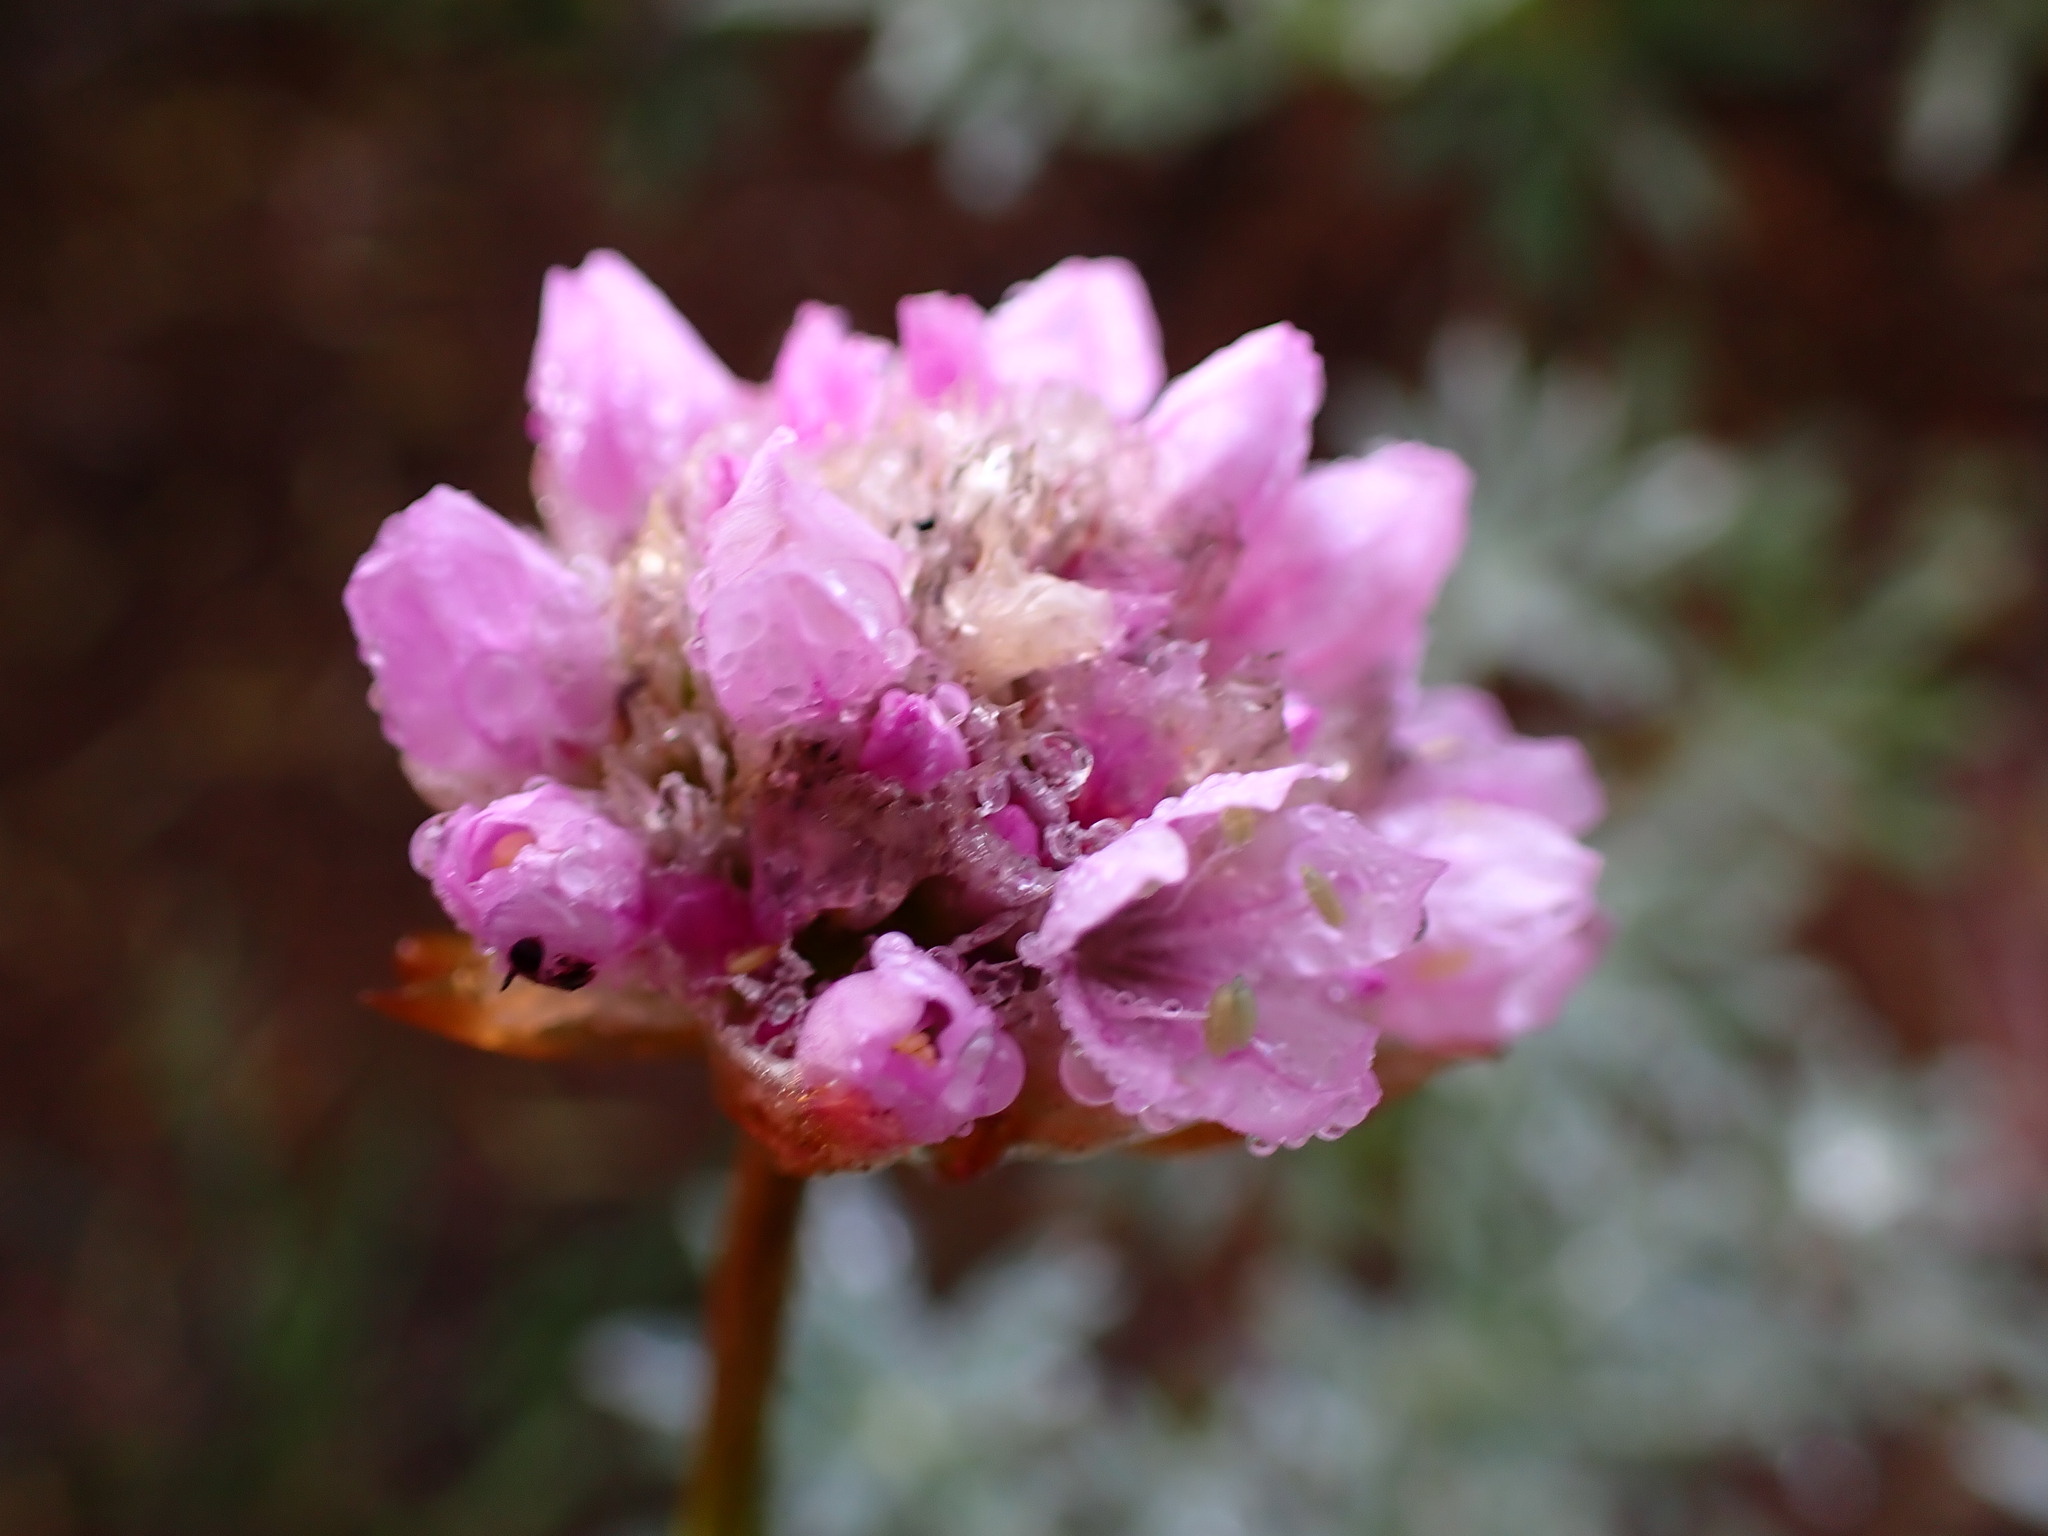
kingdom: Plantae
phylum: Tracheophyta
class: Magnoliopsida
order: Caryophyllales
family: Plumbaginaceae
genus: Armeria
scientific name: Armeria maritima
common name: Thrift
